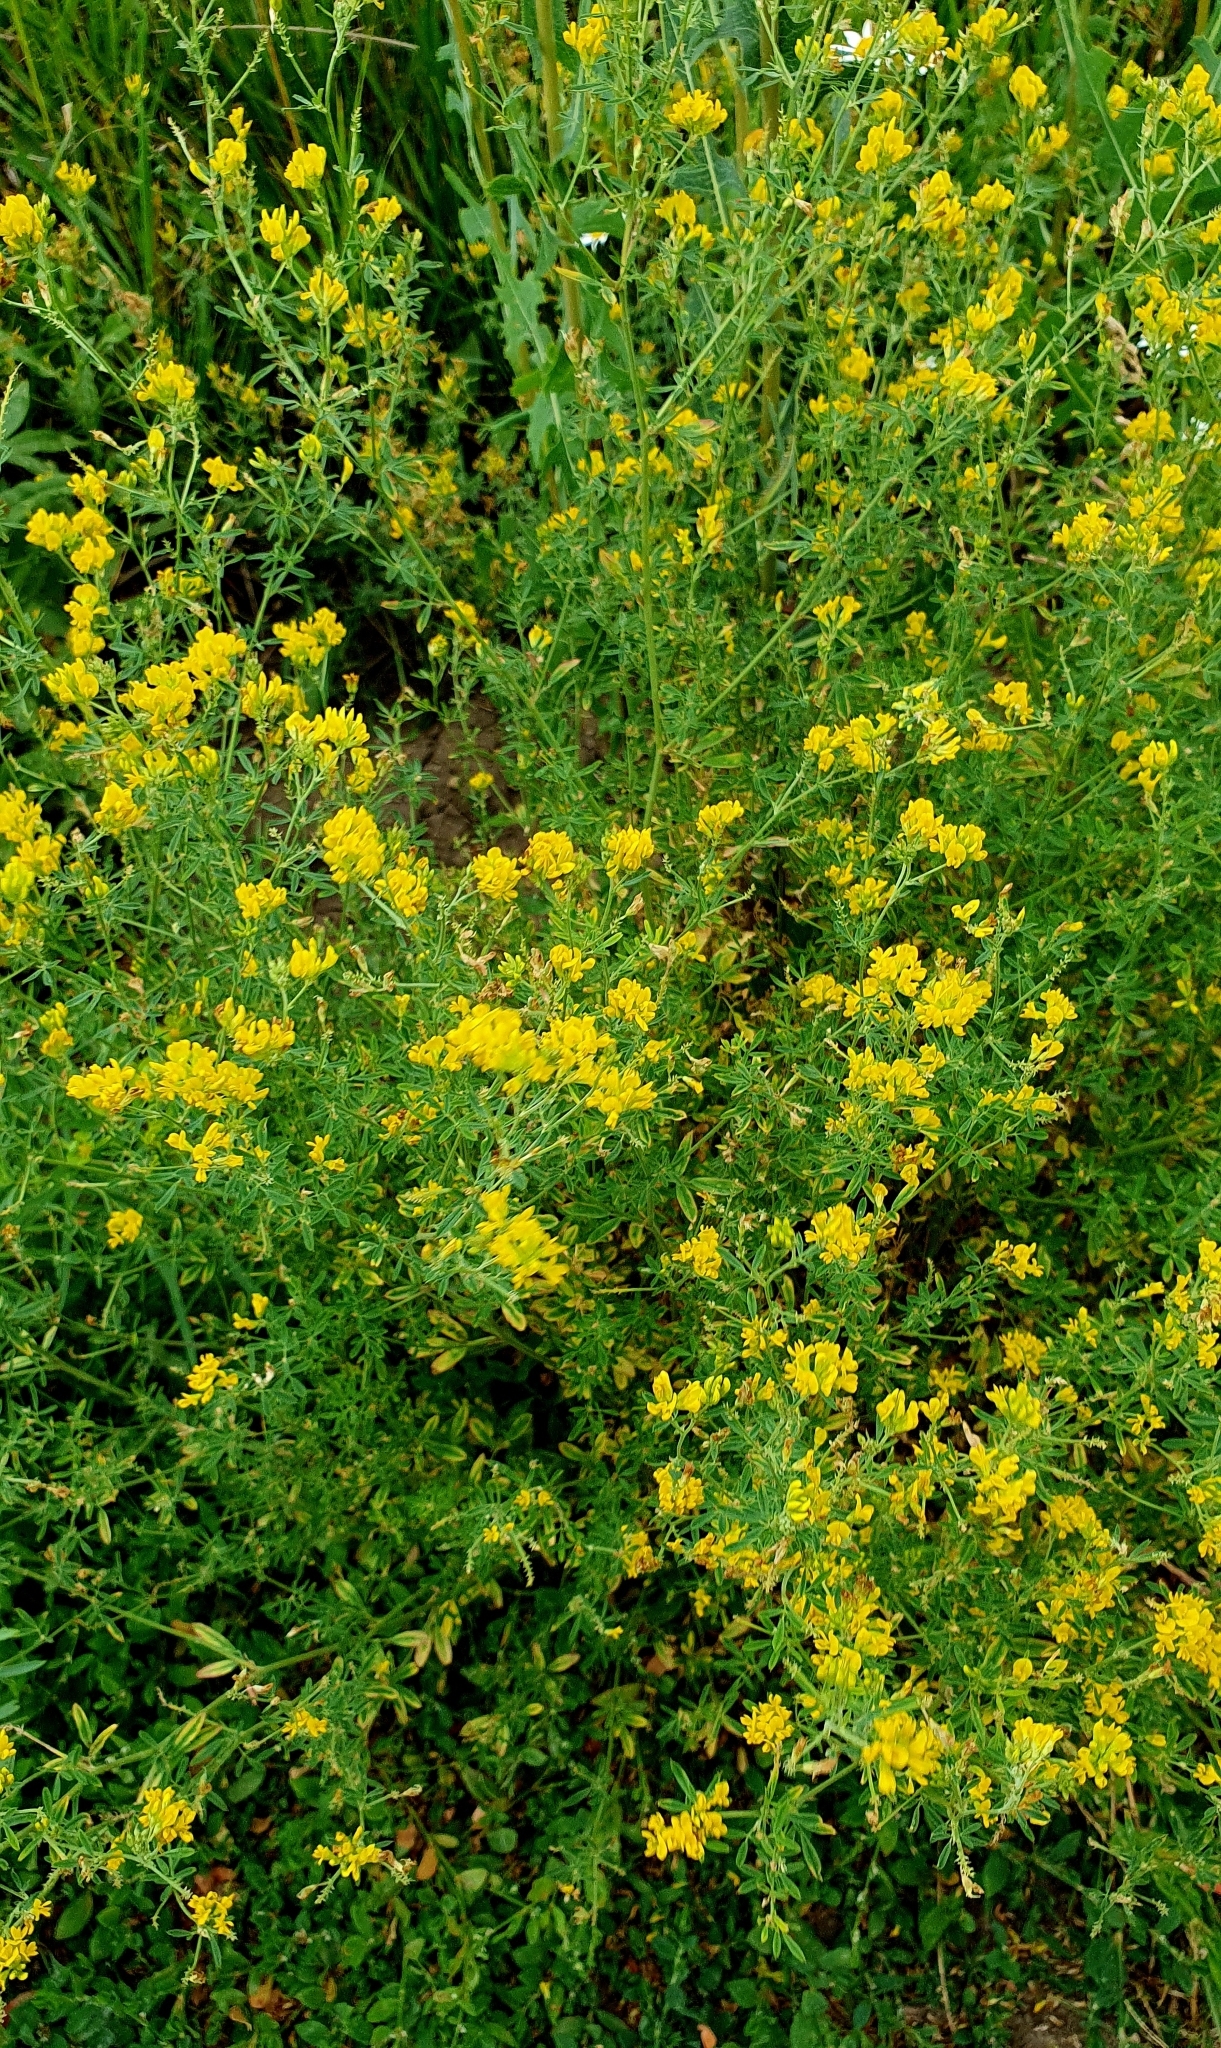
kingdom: Plantae
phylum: Tracheophyta
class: Magnoliopsida
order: Fabales
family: Fabaceae
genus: Medicago
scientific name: Medicago falcata
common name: Sickle medick
